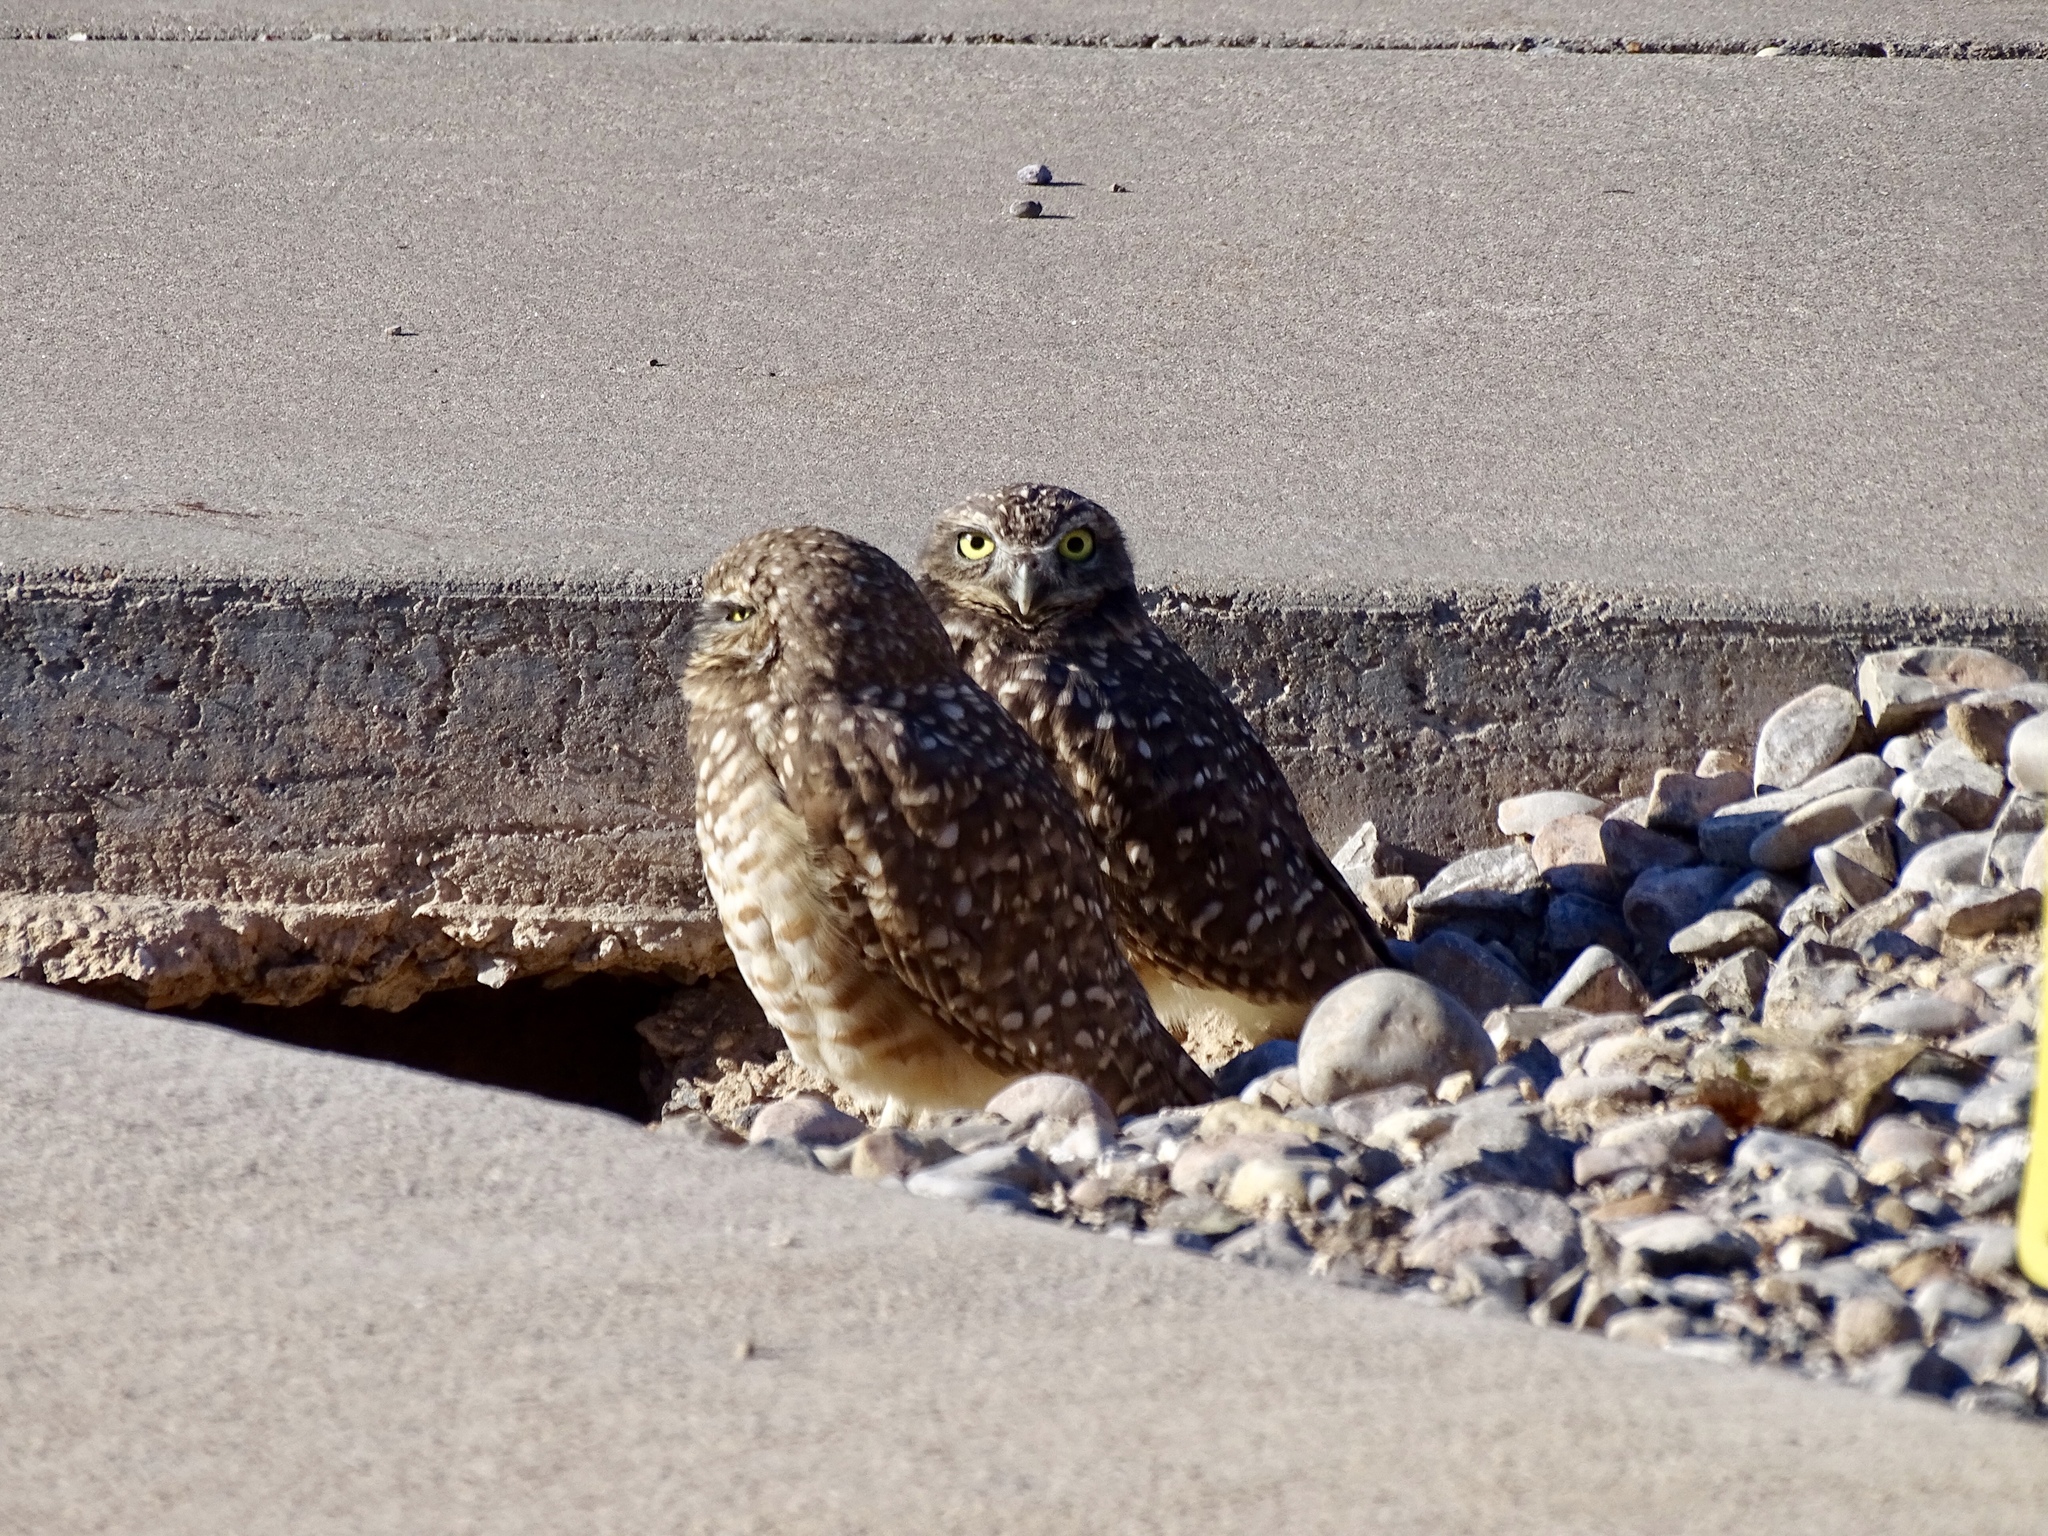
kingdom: Animalia
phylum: Chordata
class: Aves
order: Strigiformes
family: Strigidae
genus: Athene
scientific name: Athene cunicularia
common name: Burrowing owl
